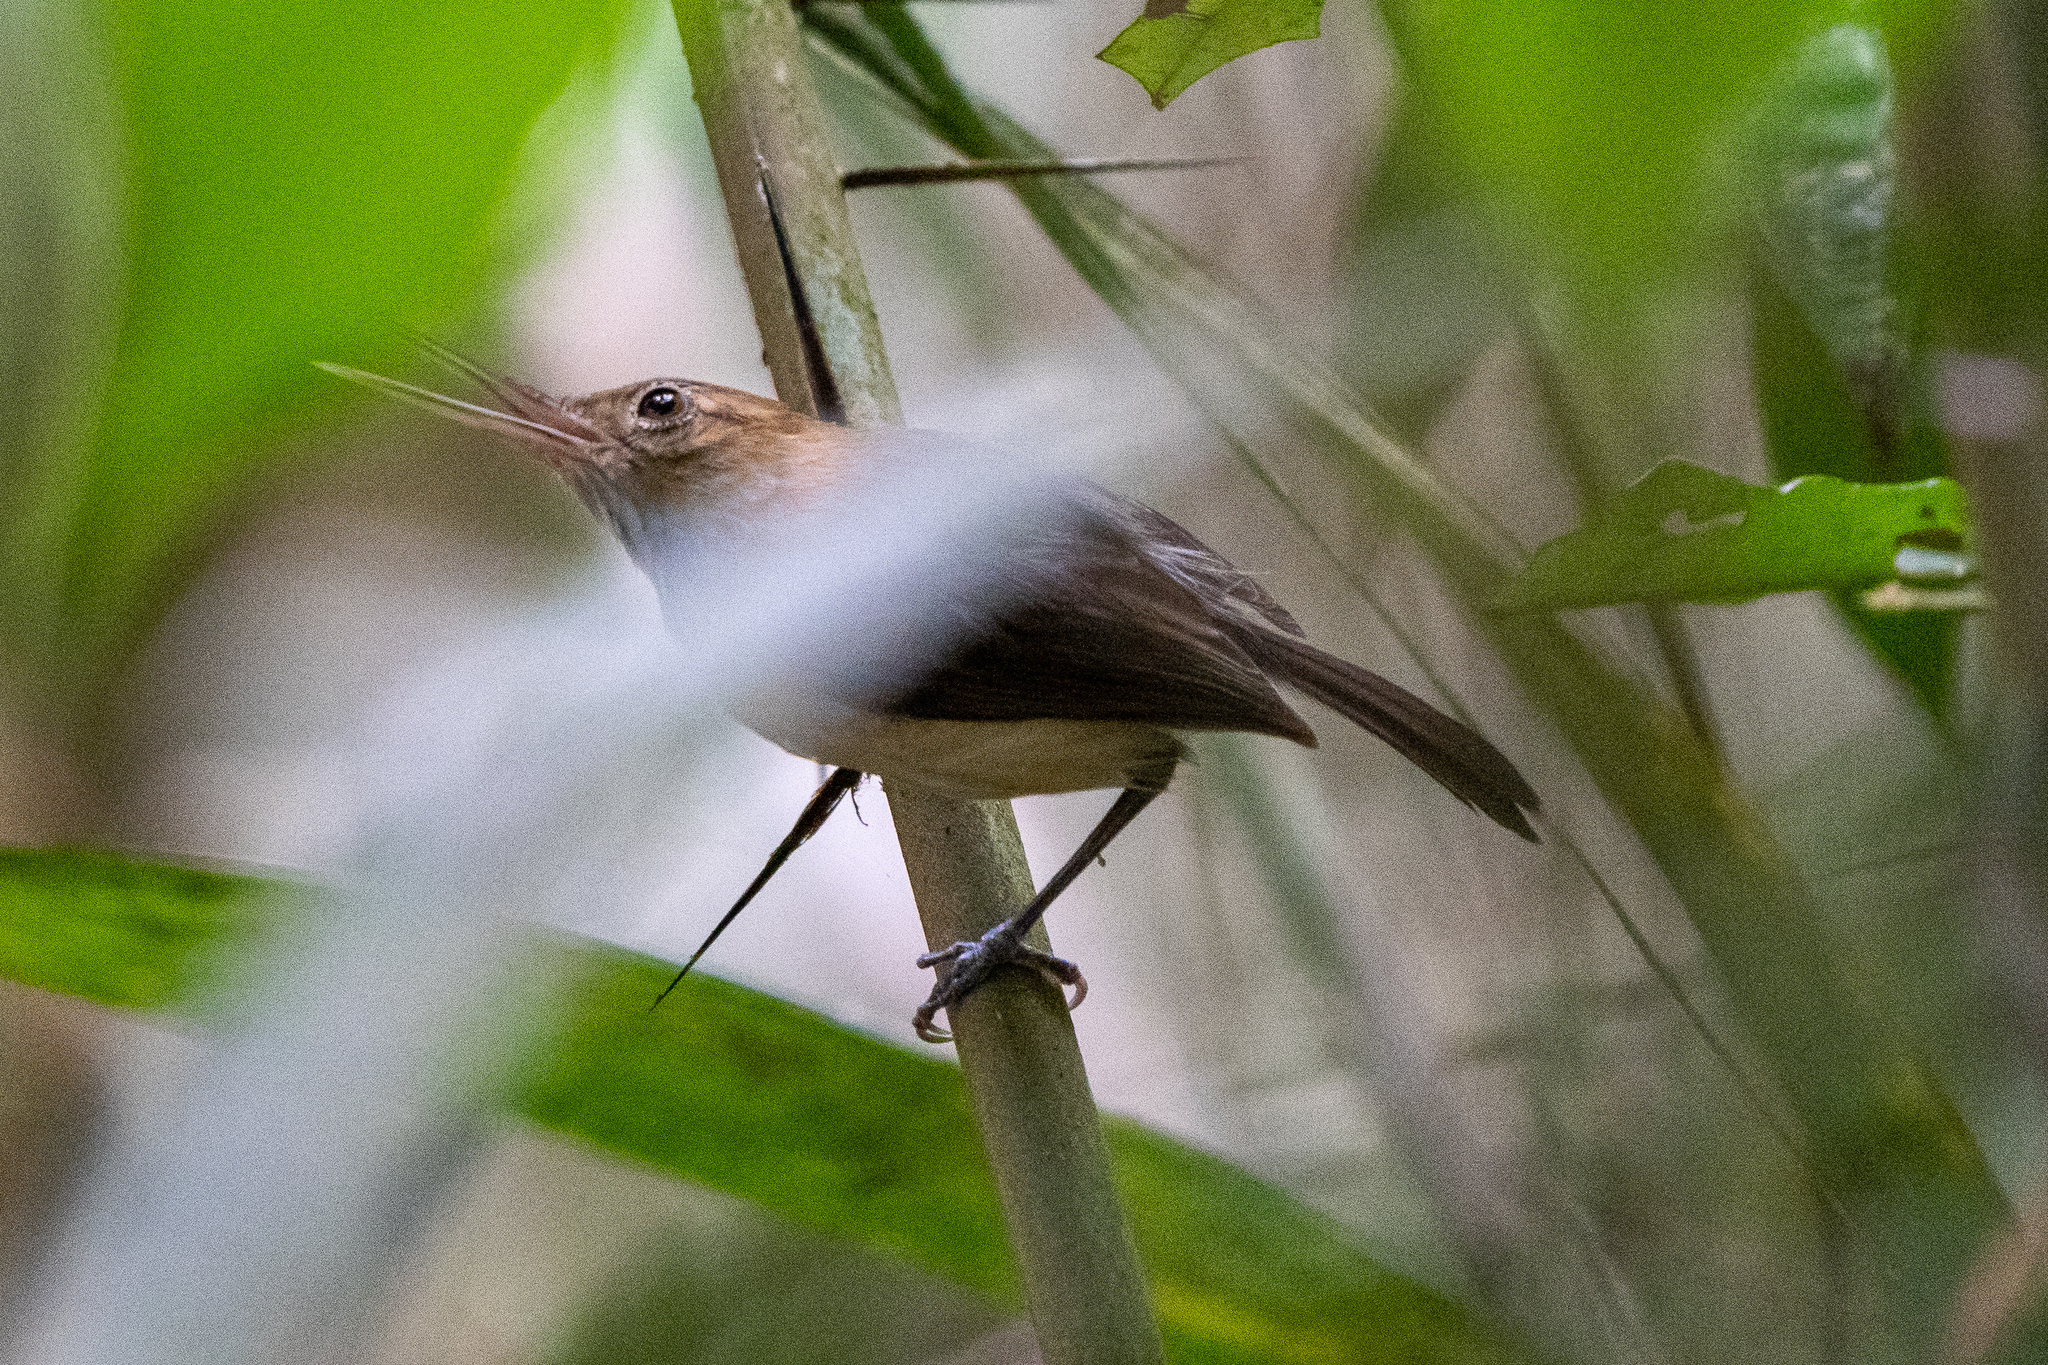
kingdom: Animalia
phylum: Chordata
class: Aves
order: Passeriformes
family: Polioptilidae
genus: Ramphocaenus
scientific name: Ramphocaenus melanurus
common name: Long-billed gnatwren
